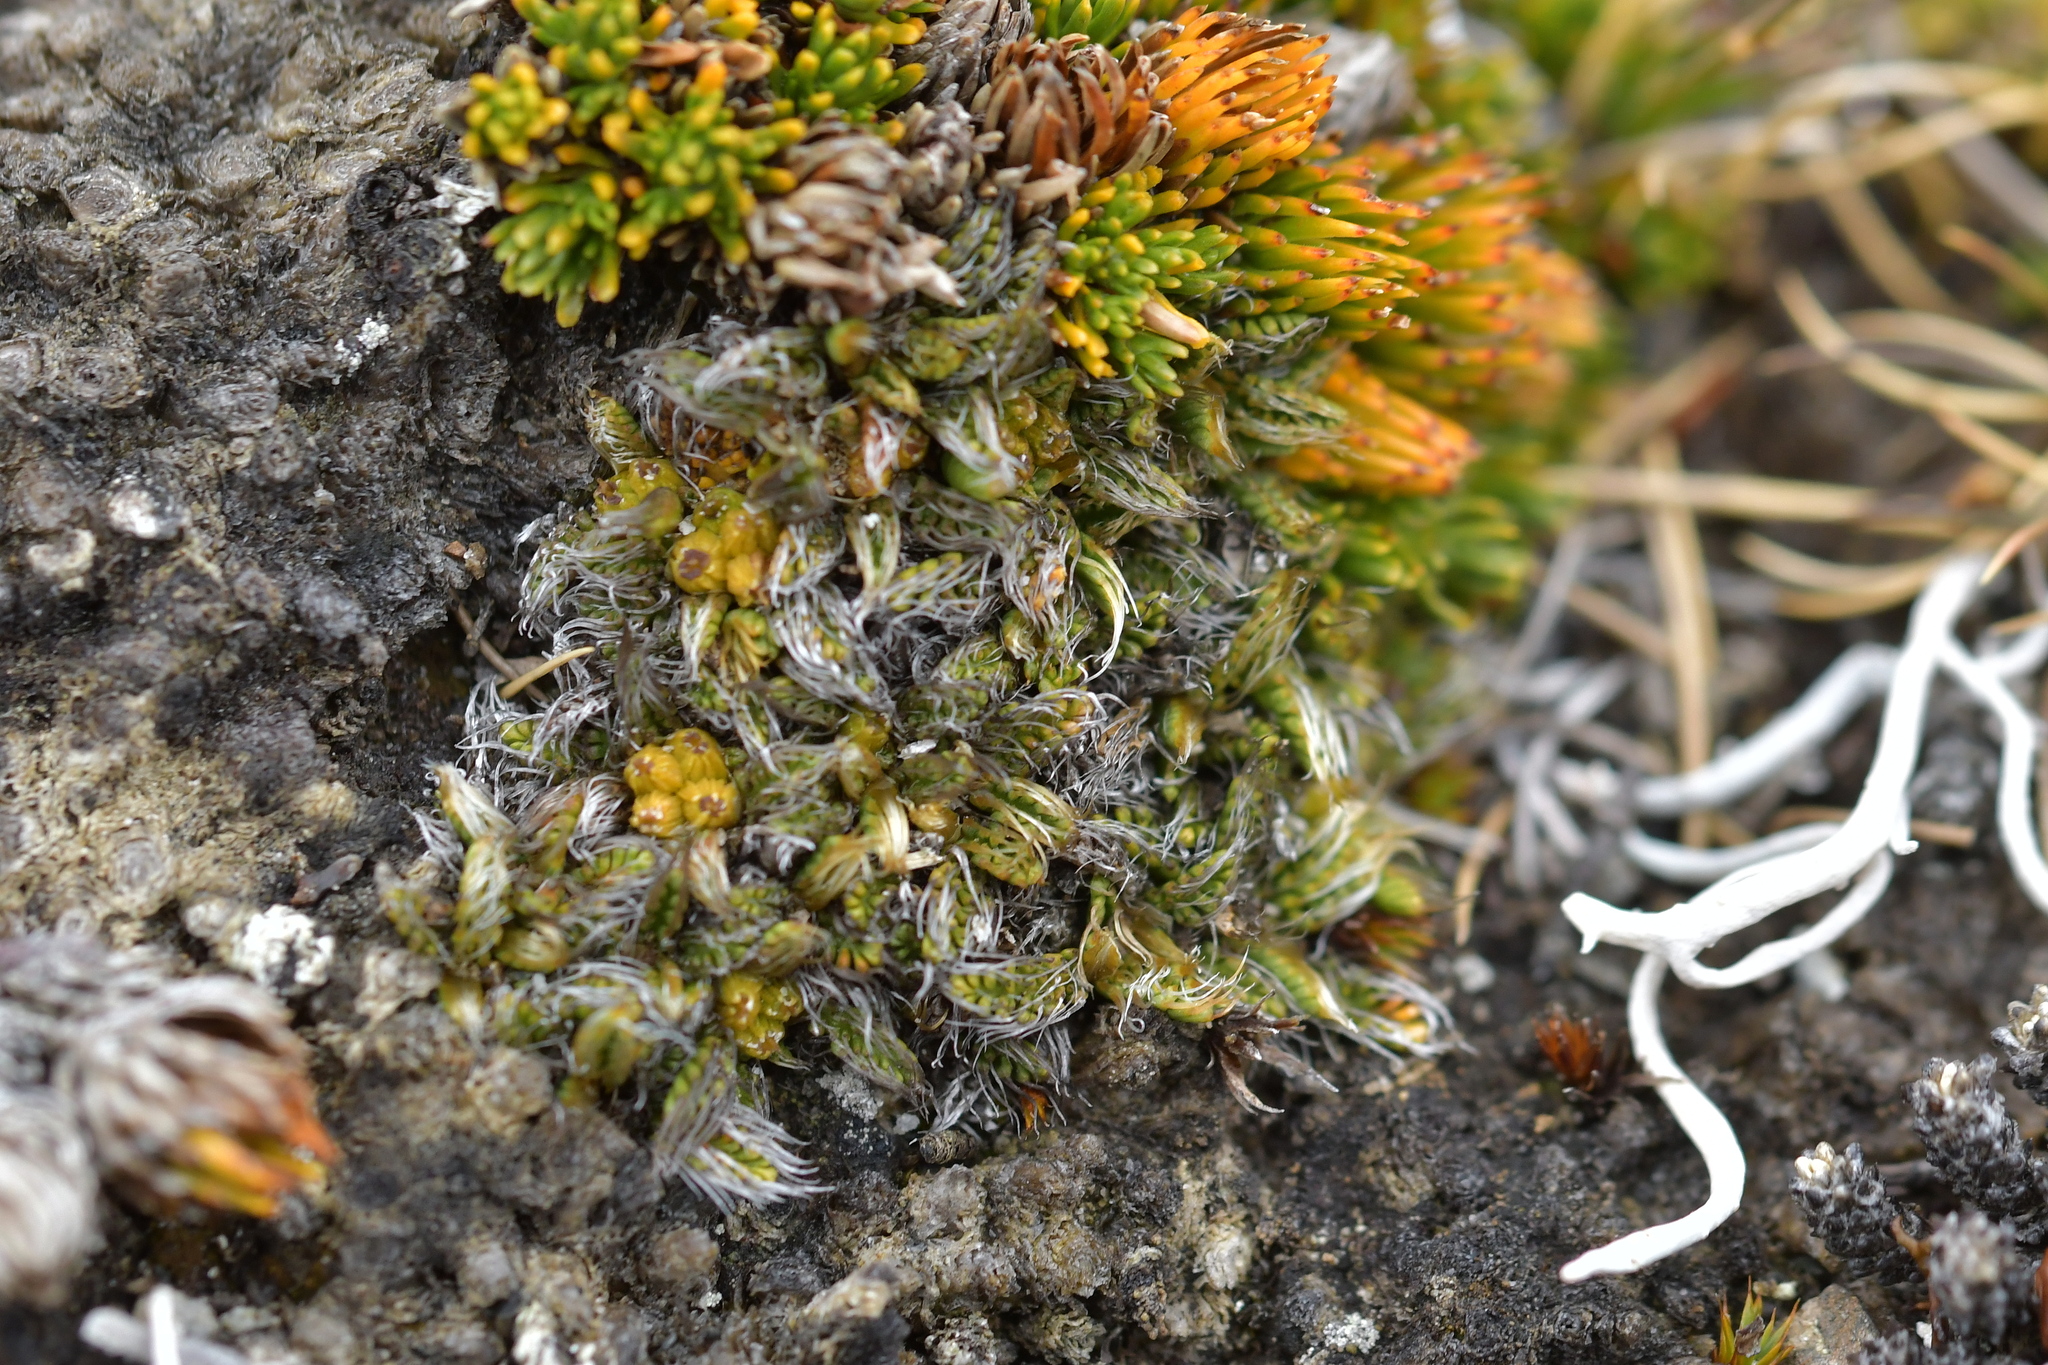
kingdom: Plantae
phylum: Tracheophyta
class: Magnoliopsida
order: Apiales
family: Apiaceae
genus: Anisotome
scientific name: Anisotome imbricata
